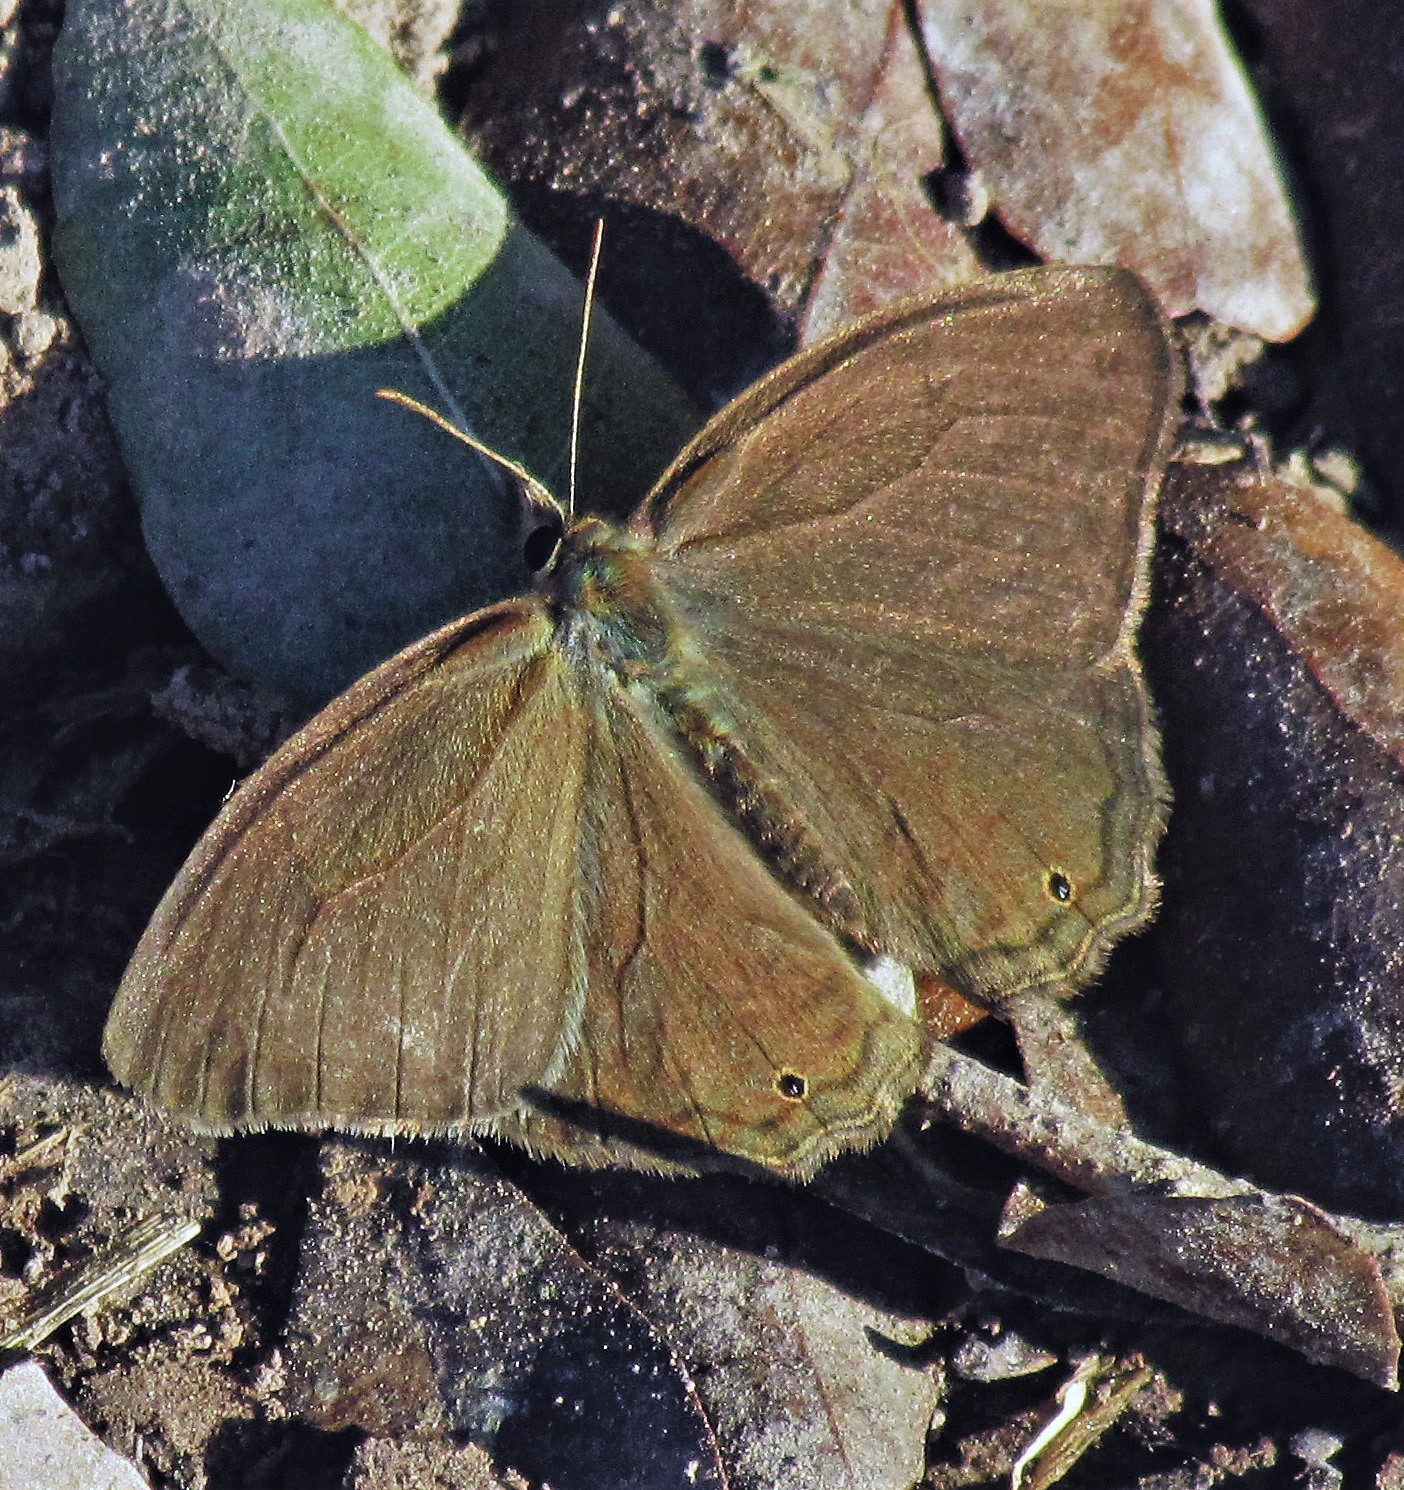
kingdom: Animalia
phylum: Arthropoda
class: Insecta
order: Lepidoptera
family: Nymphalidae
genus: Euptychia
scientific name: Euptychia
